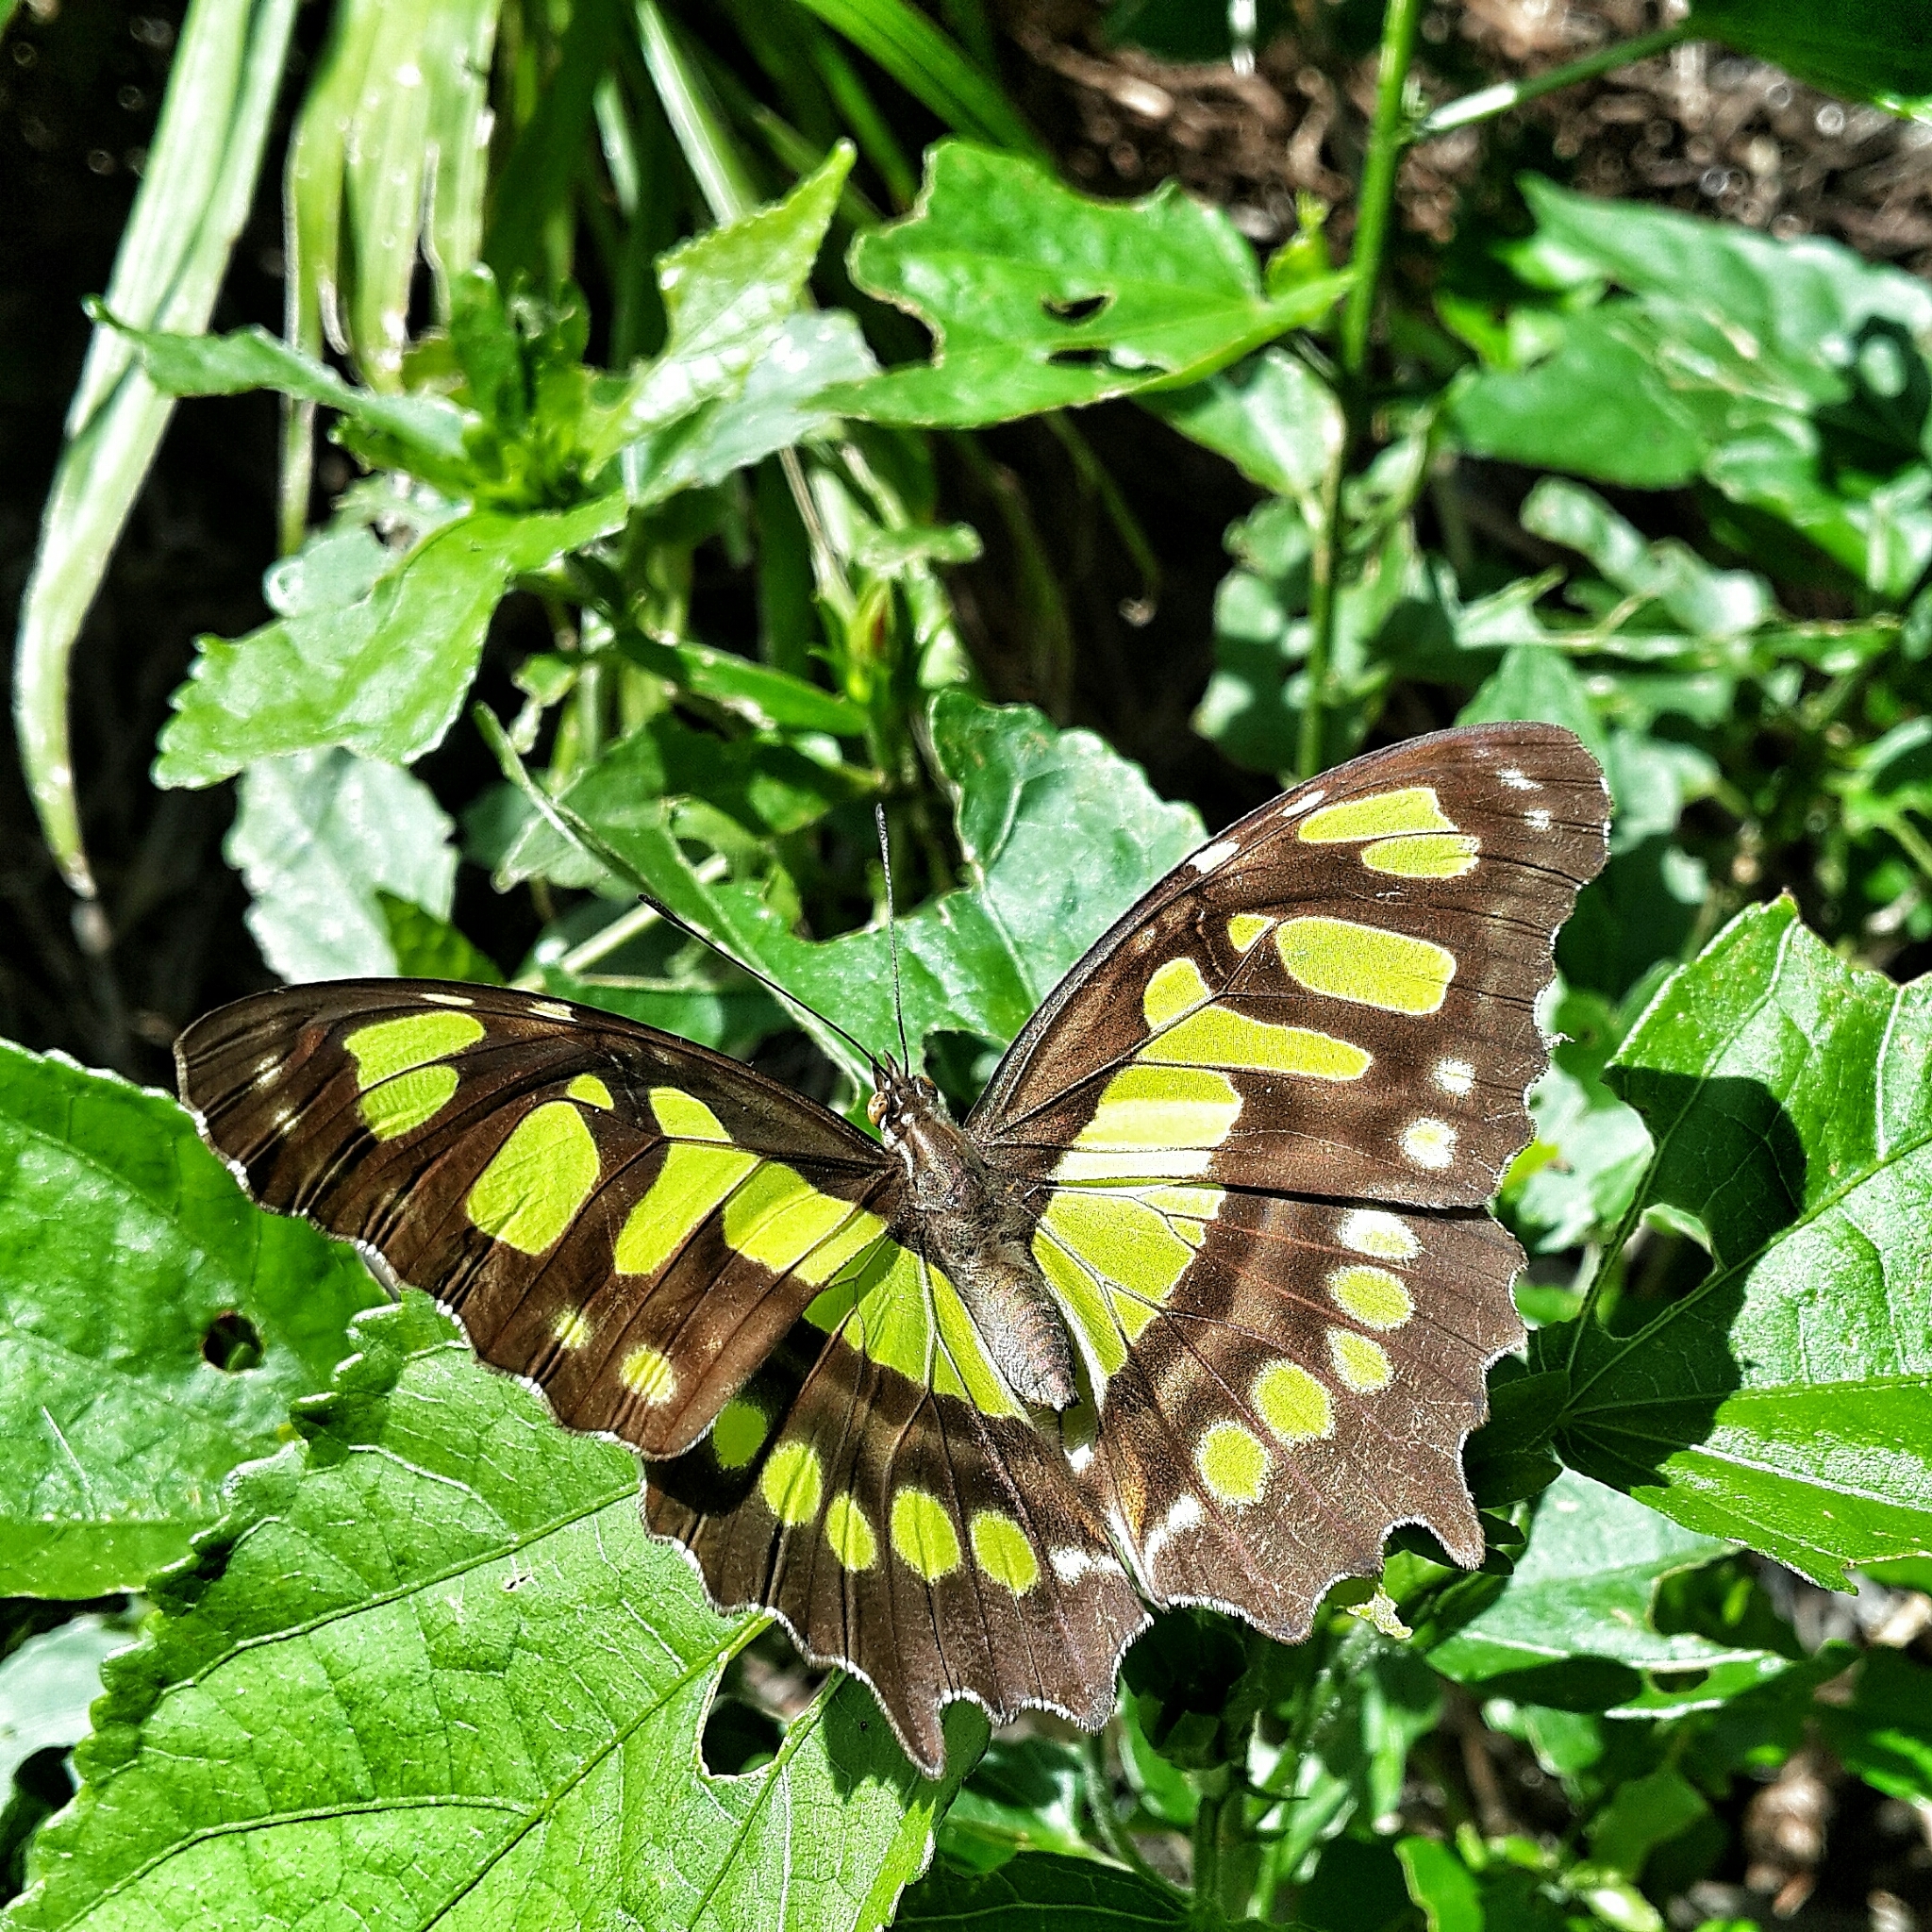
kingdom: Animalia
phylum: Arthropoda
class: Insecta
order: Lepidoptera
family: Nymphalidae
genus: Siproeta
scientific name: Siproeta stelenes
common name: Malachite
